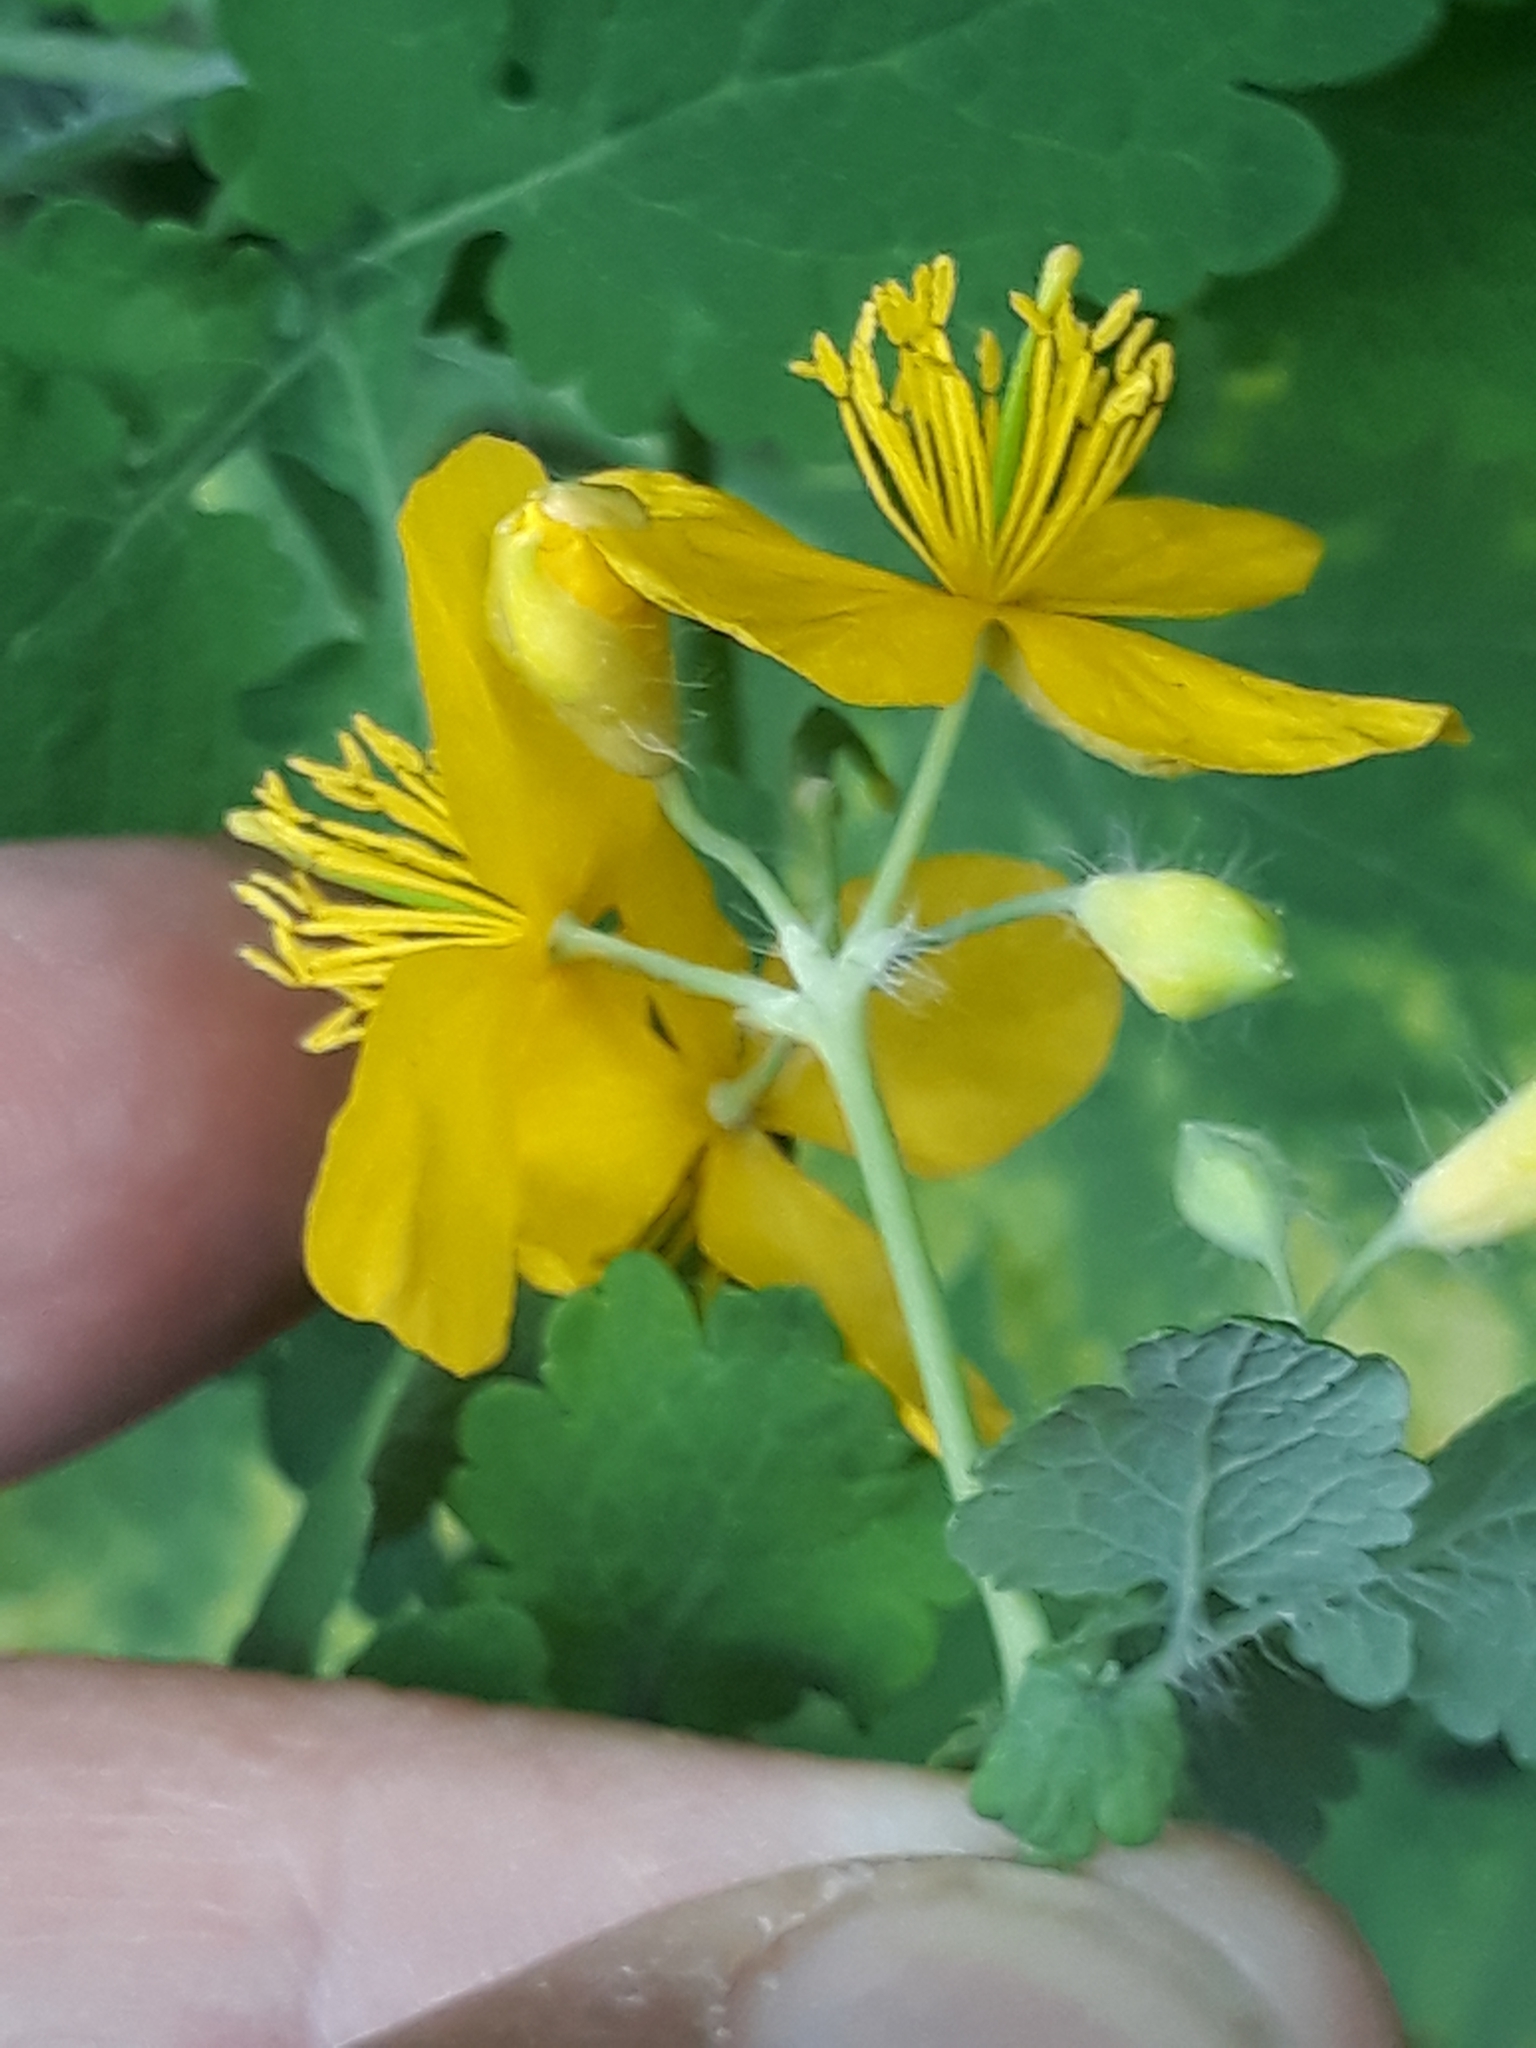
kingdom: Plantae
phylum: Tracheophyta
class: Magnoliopsida
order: Ranunculales
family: Papaveraceae
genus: Chelidonium
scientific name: Chelidonium majus
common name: Greater celandine
